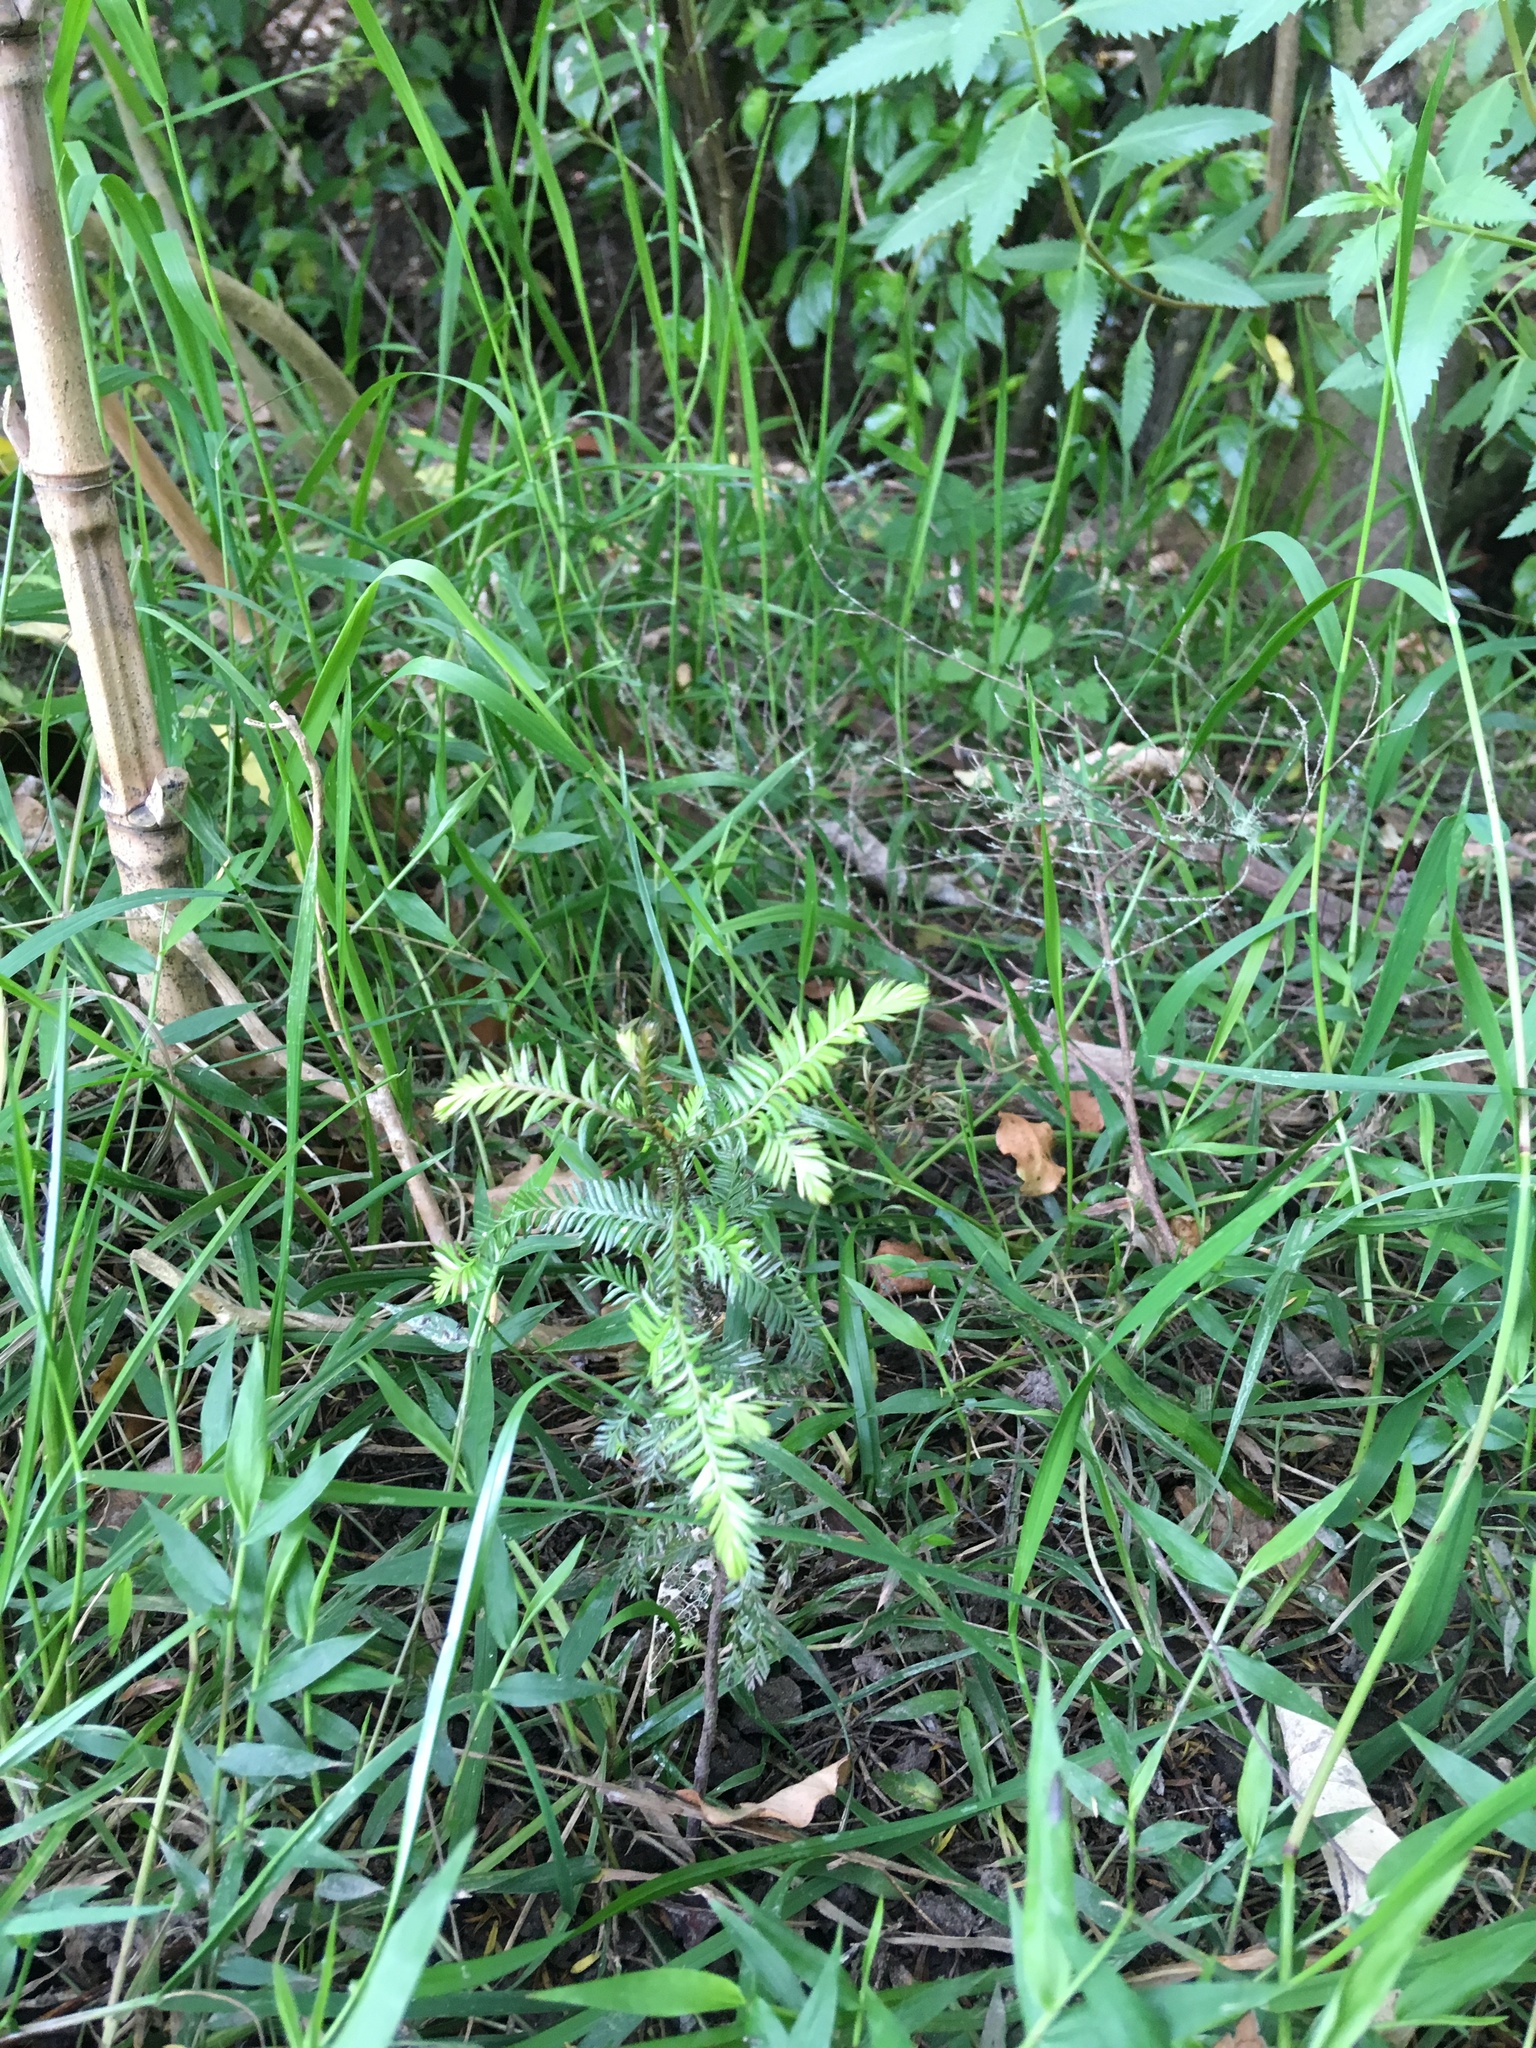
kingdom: Plantae
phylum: Tracheophyta
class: Pinopsida
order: Pinales
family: Podocarpaceae
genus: Dacrycarpus
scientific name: Dacrycarpus dacrydioides
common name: White pine
